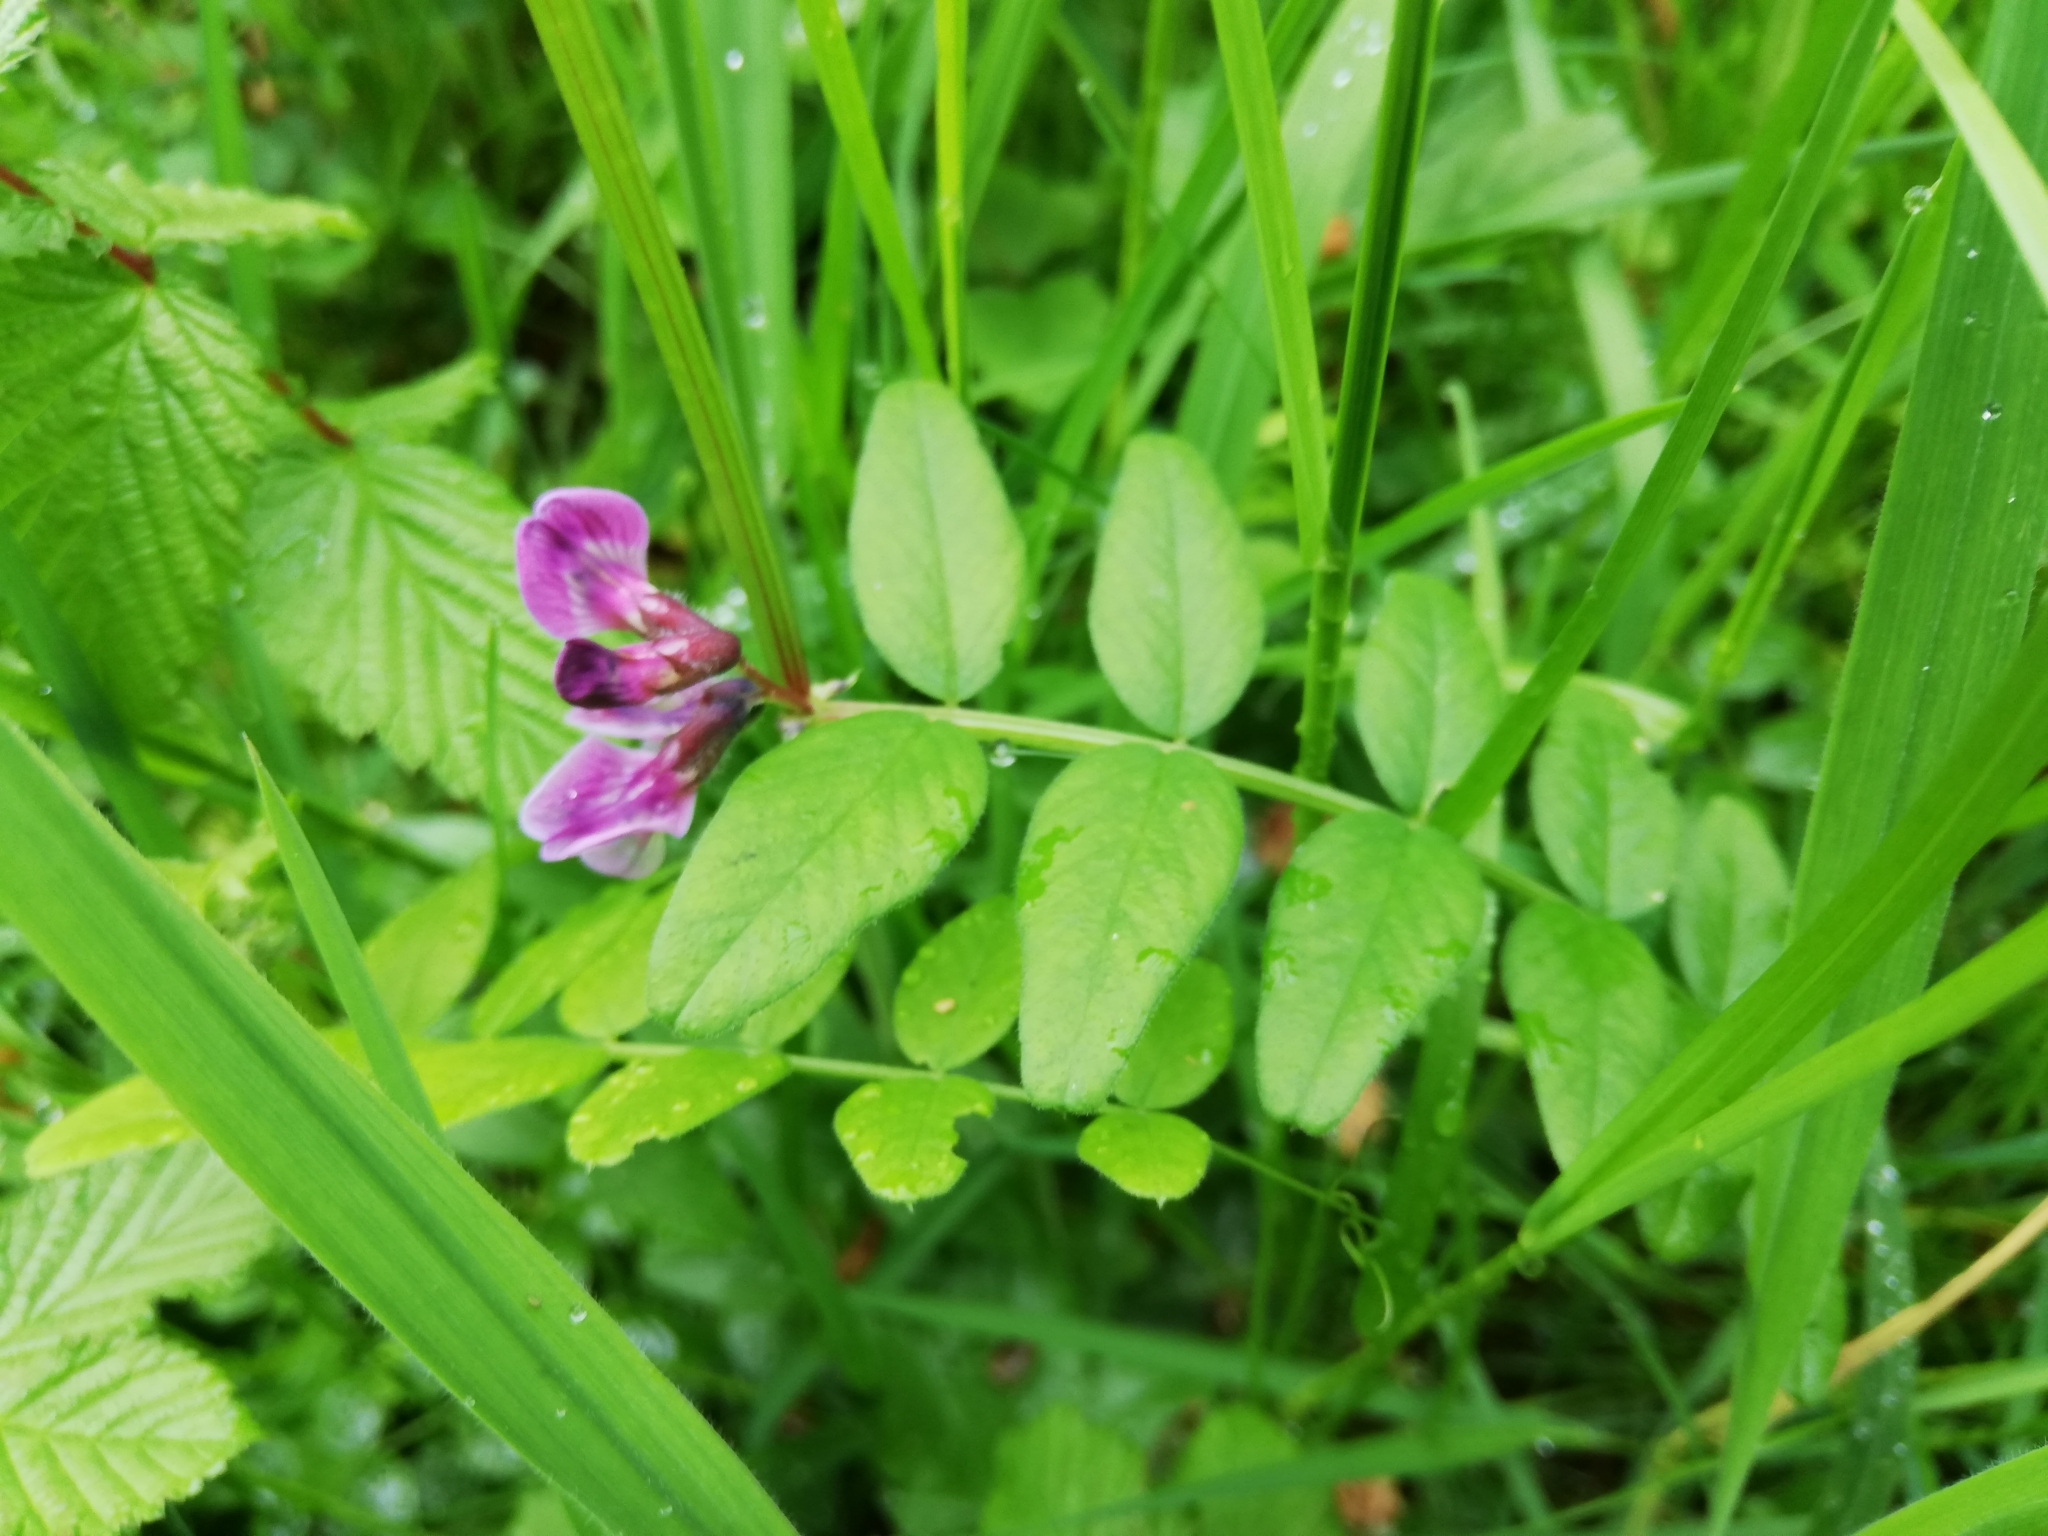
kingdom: Plantae
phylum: Tracheophyta
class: Magnoliopsida
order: Fabales
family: Fabaceae
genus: Vicia
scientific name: Vicia sepium
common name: Bush vetch
